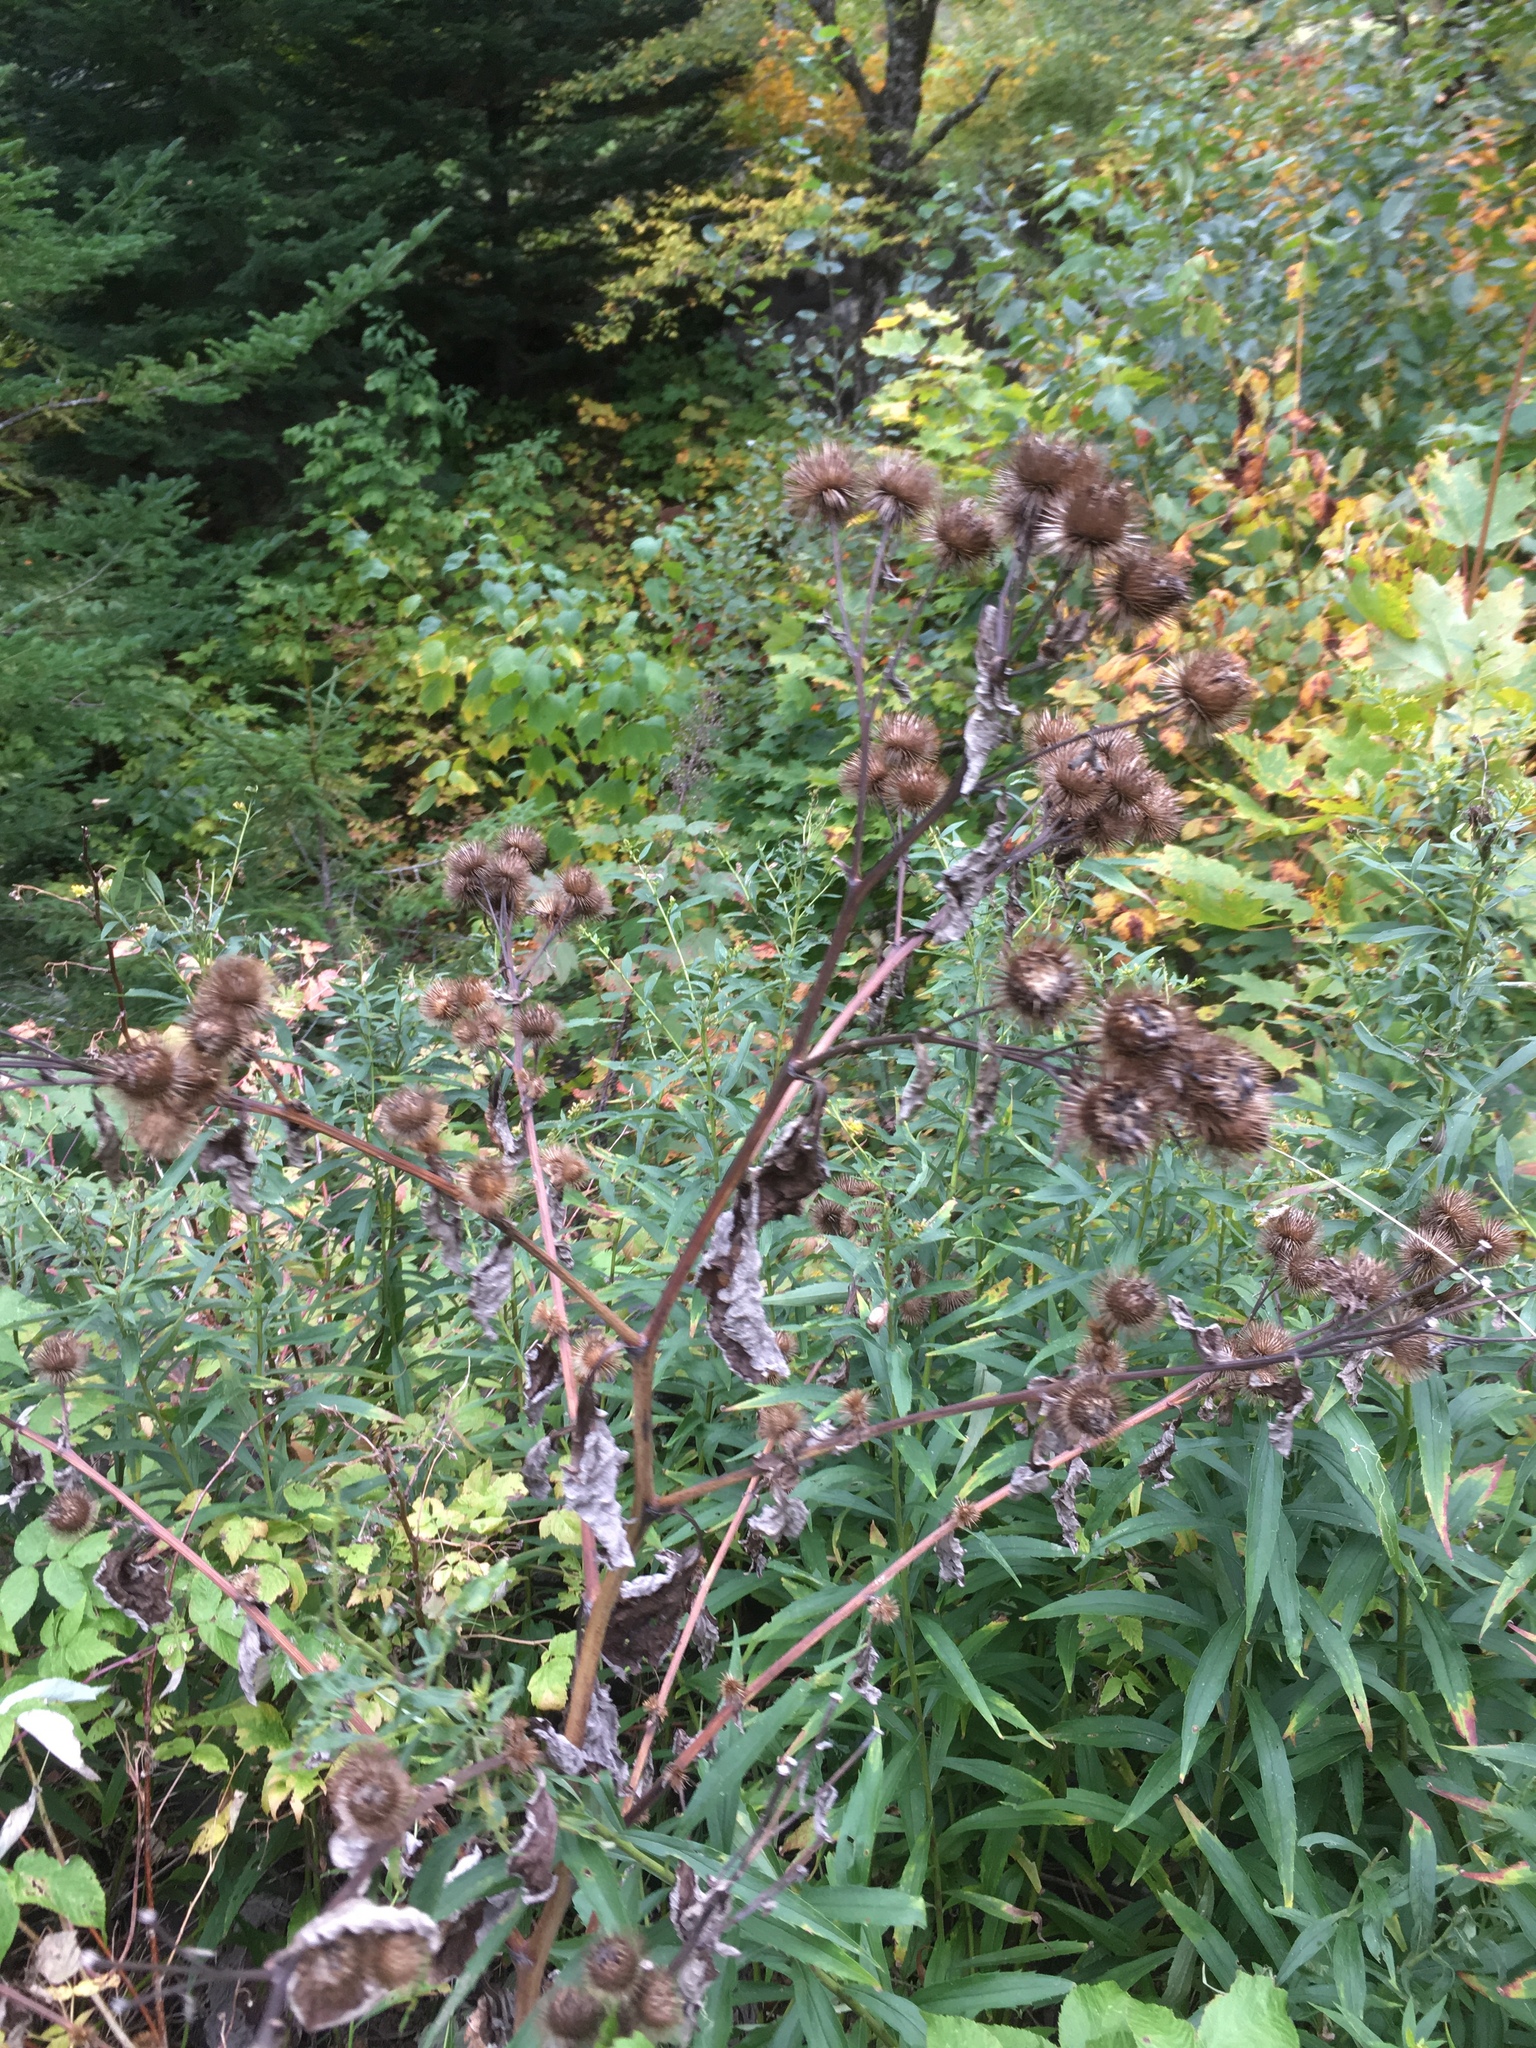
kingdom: Plantae
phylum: Tracheophyta
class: Magnoliopsida
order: Asterales
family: Asteraceae
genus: Arctium
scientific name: Arctium lappa
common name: Greater burdock
